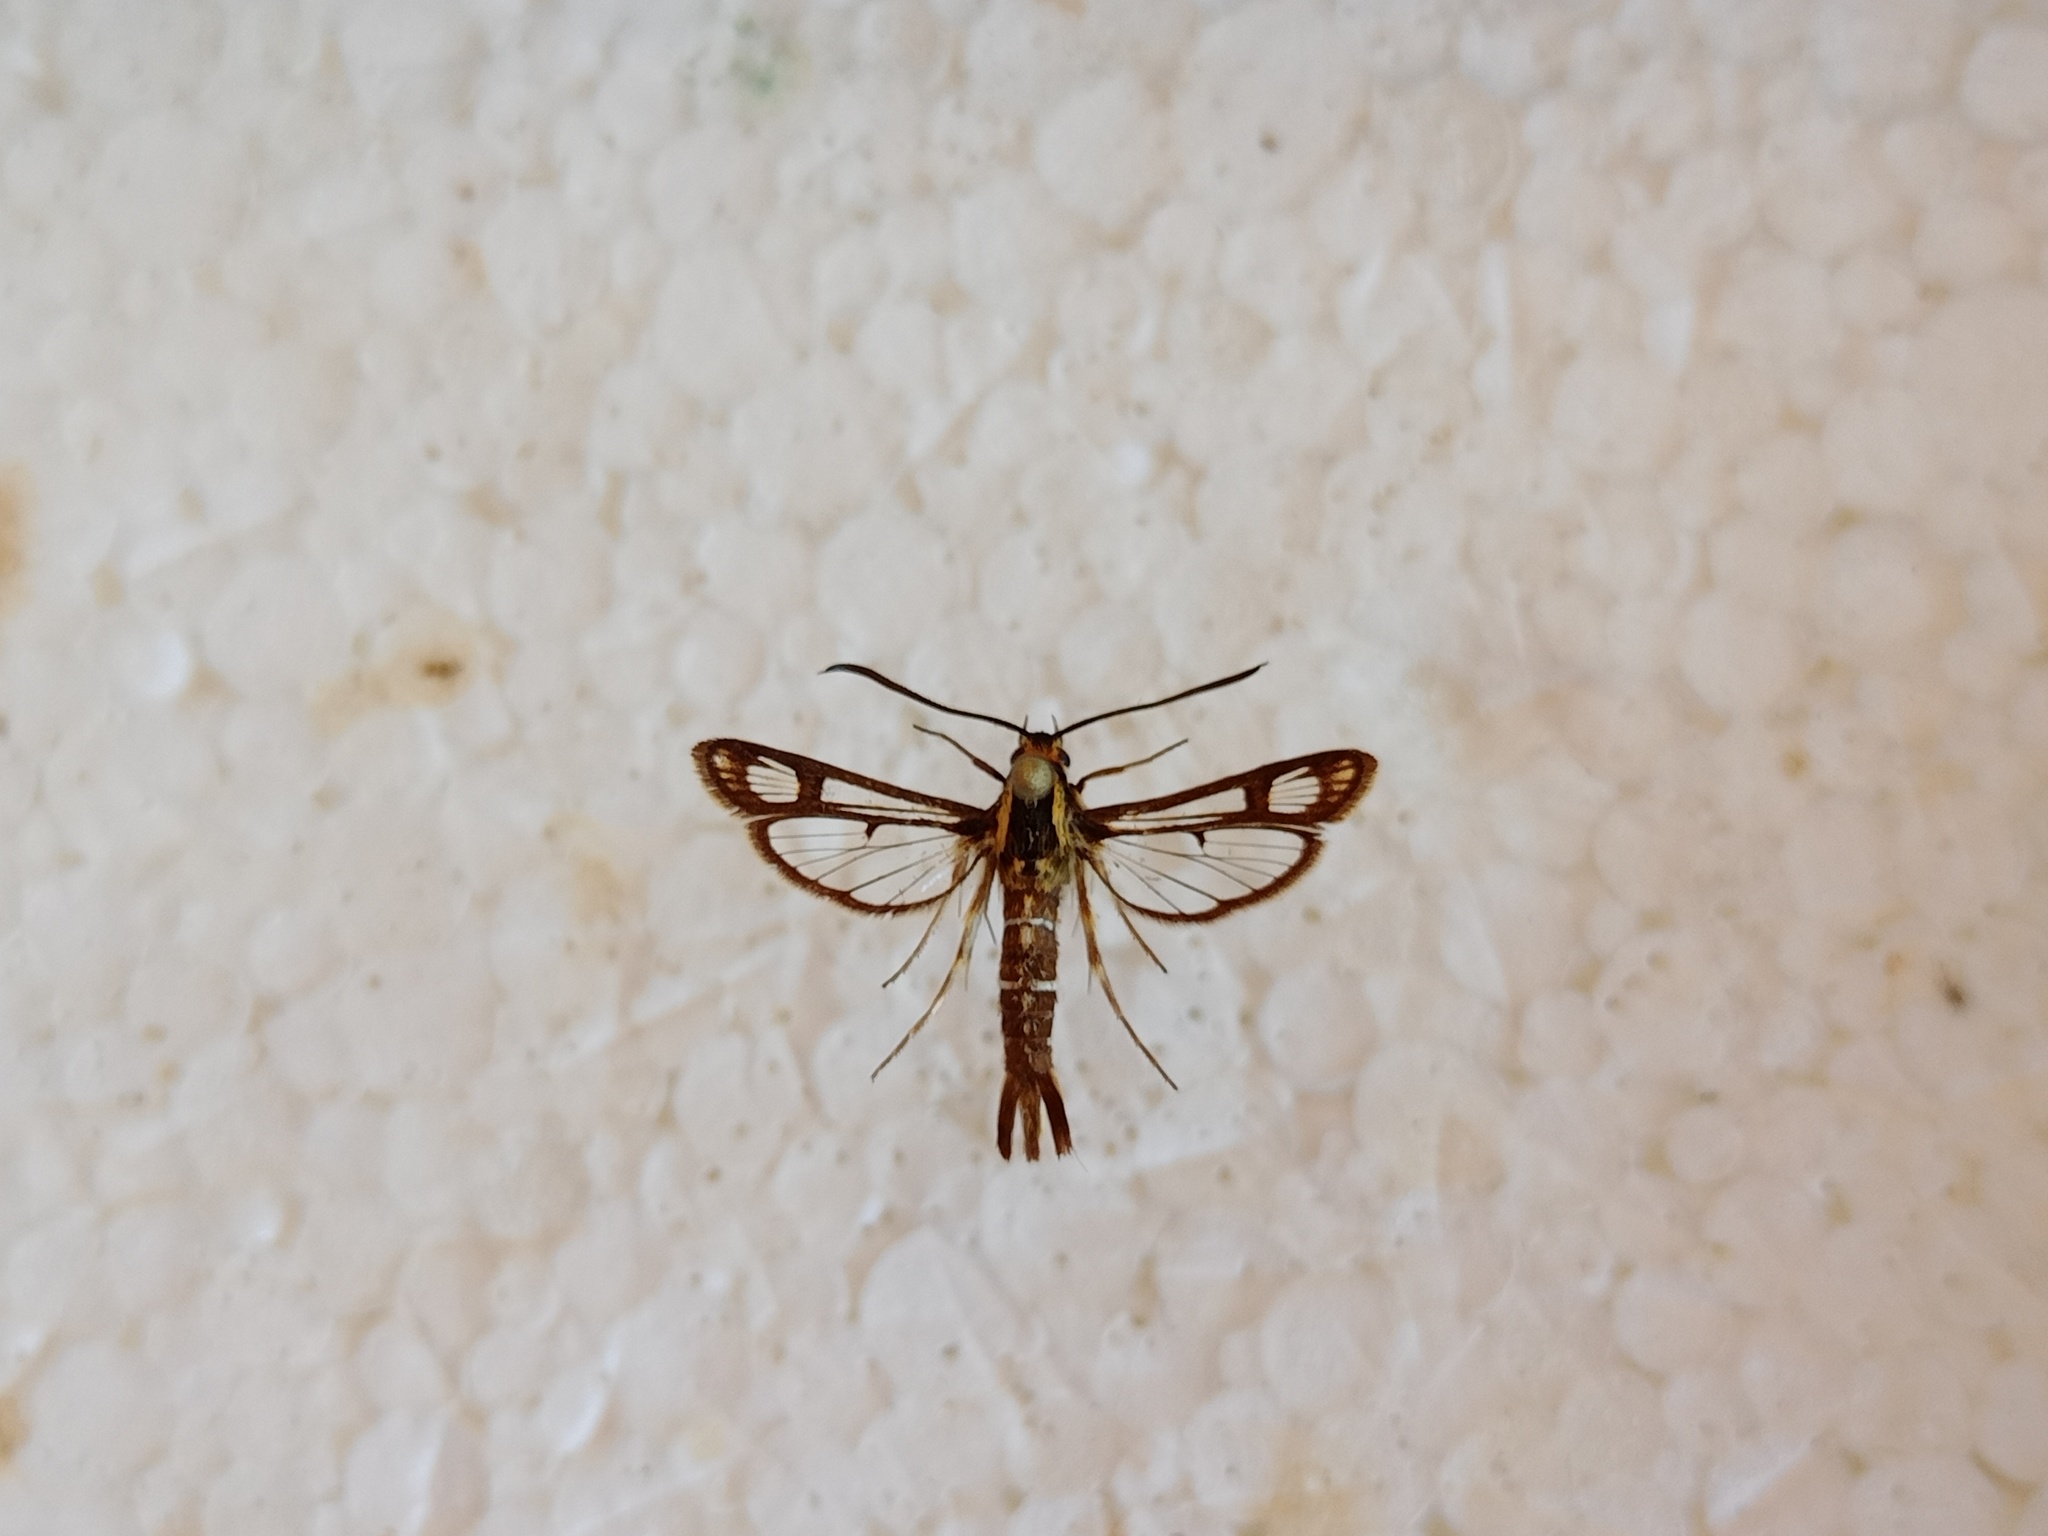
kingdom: Animalia
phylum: Arthropoda
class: Insecta
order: Lepidoptera
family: Sesiidae
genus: Pyropteron
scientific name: Pyropteron triannuliformis
